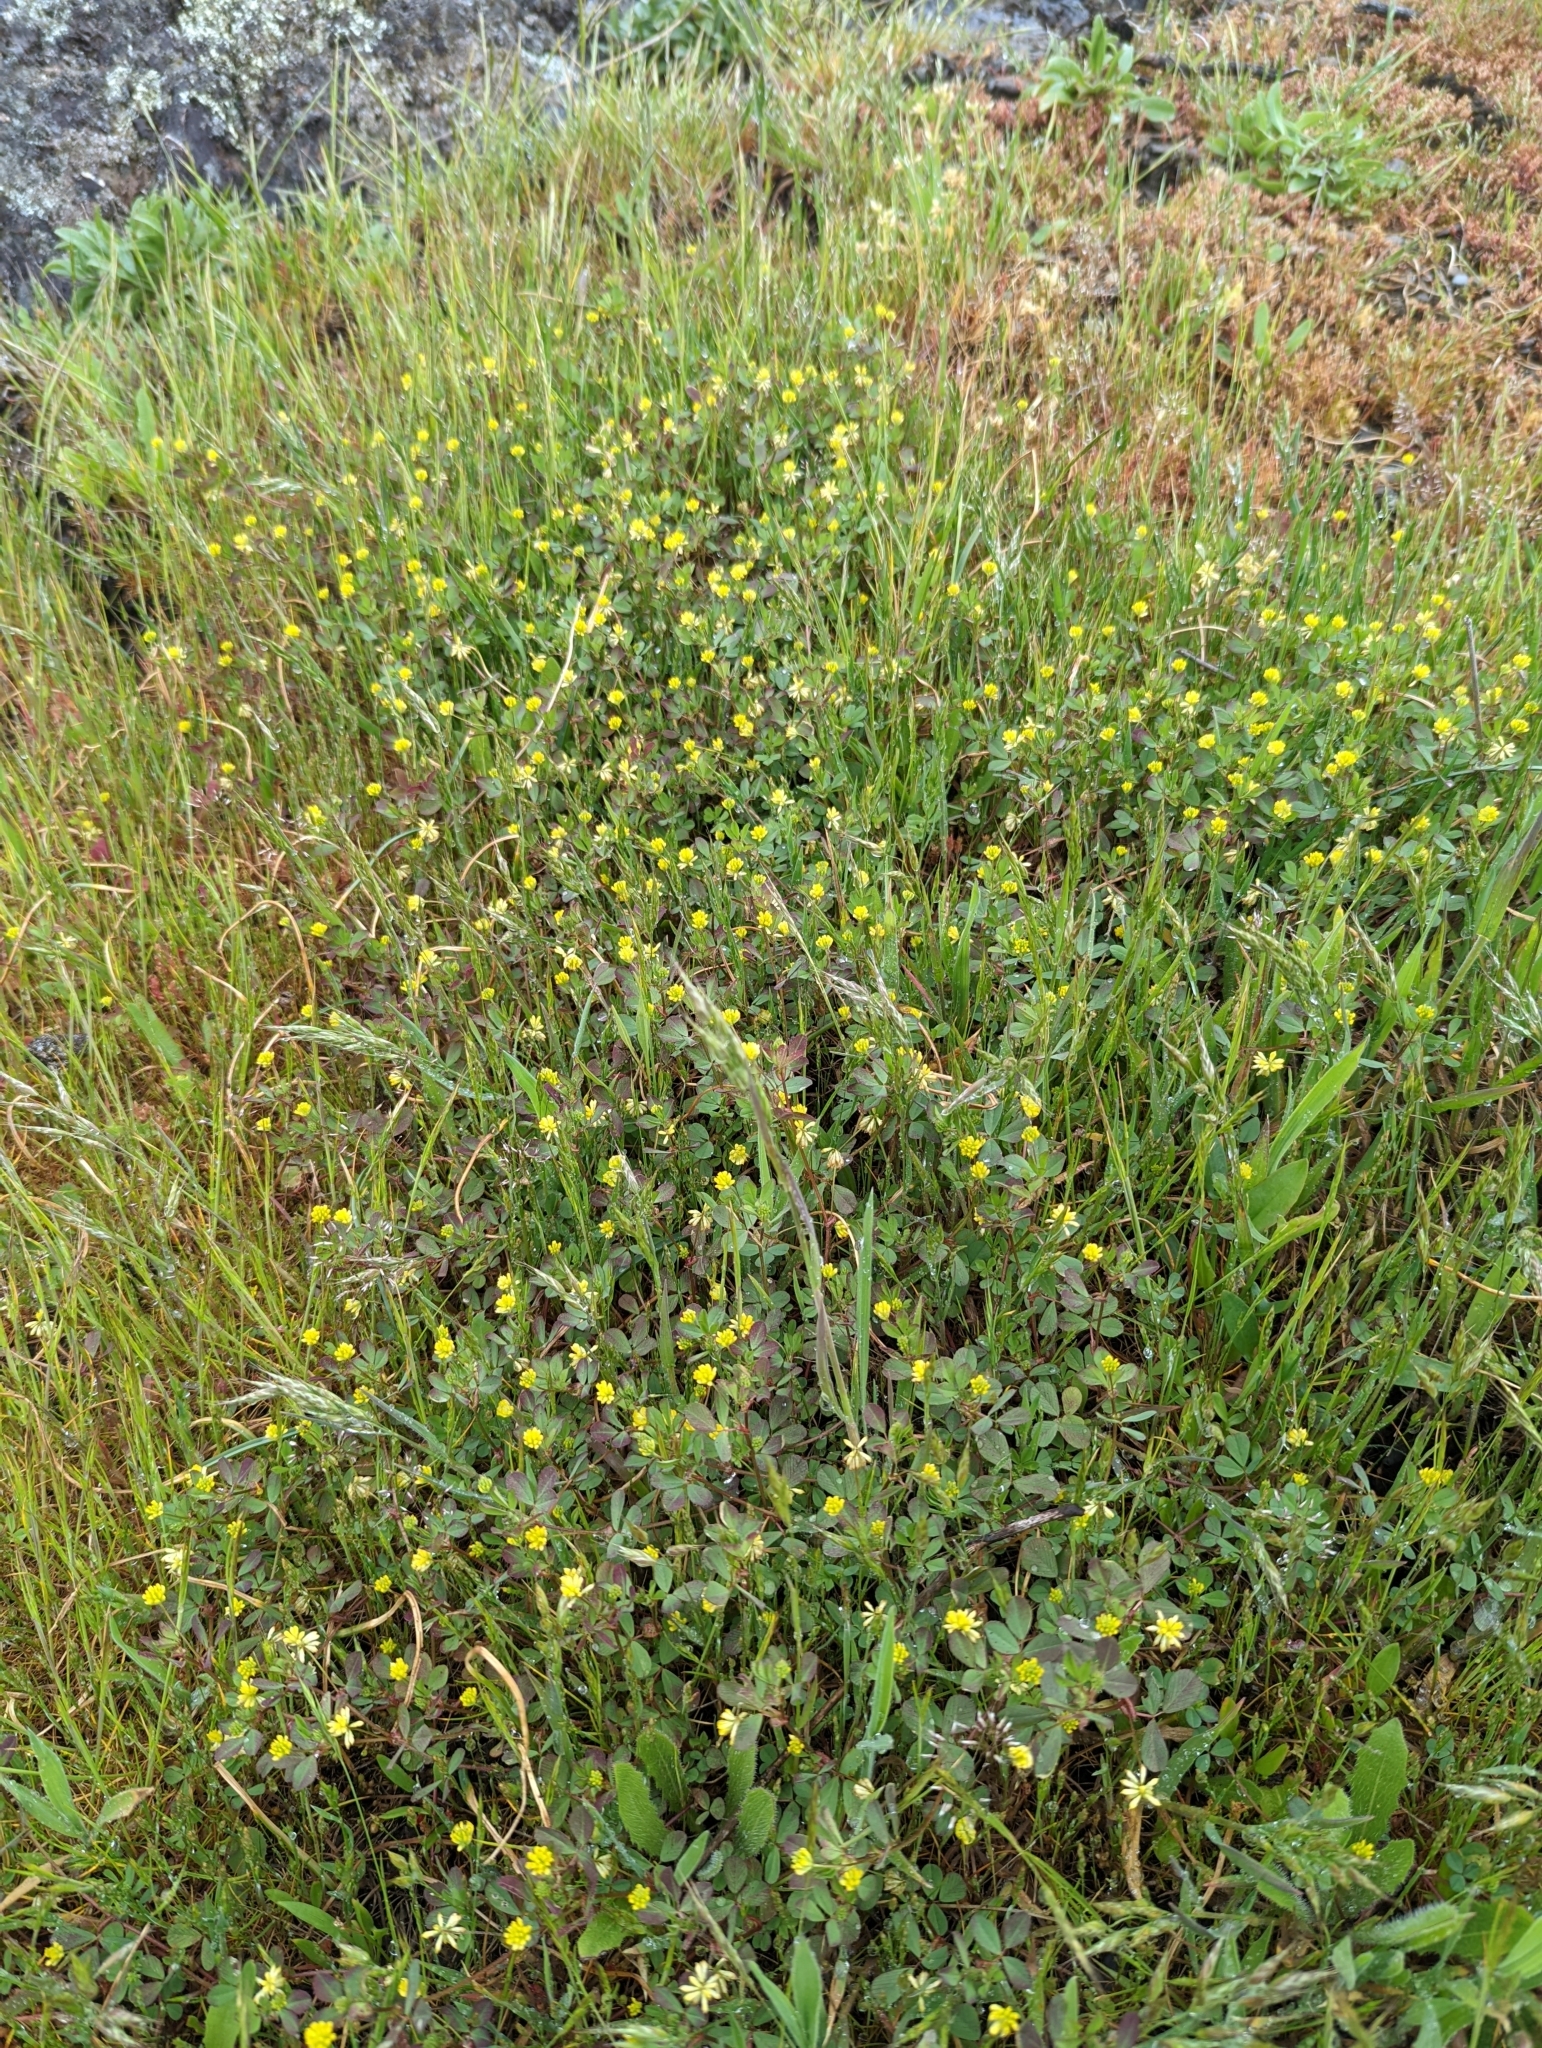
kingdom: Plantae
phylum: Tracheophyta
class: Magnoliopsida
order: Fabales
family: Fabaceae
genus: Trifolium
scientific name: Trifolium dubium
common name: Suckling clover
